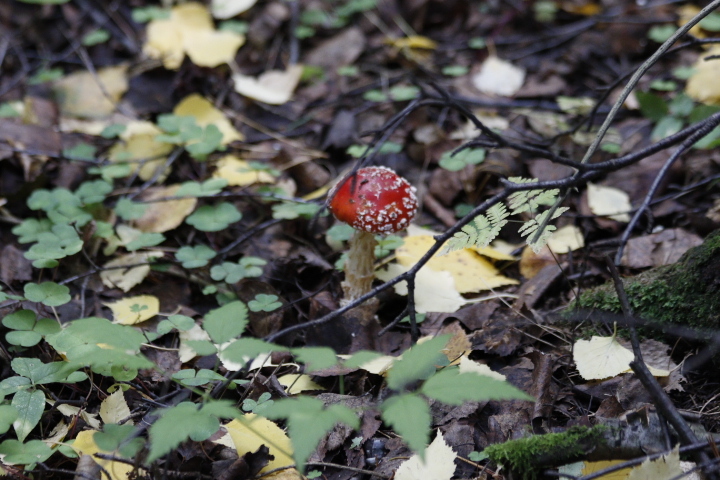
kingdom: Fungi
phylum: Basidiomycota
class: Agaricomycetes
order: Agaricales
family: Amanitaceae
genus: Amanita
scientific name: Amanita muscaria
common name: Fly agaric
